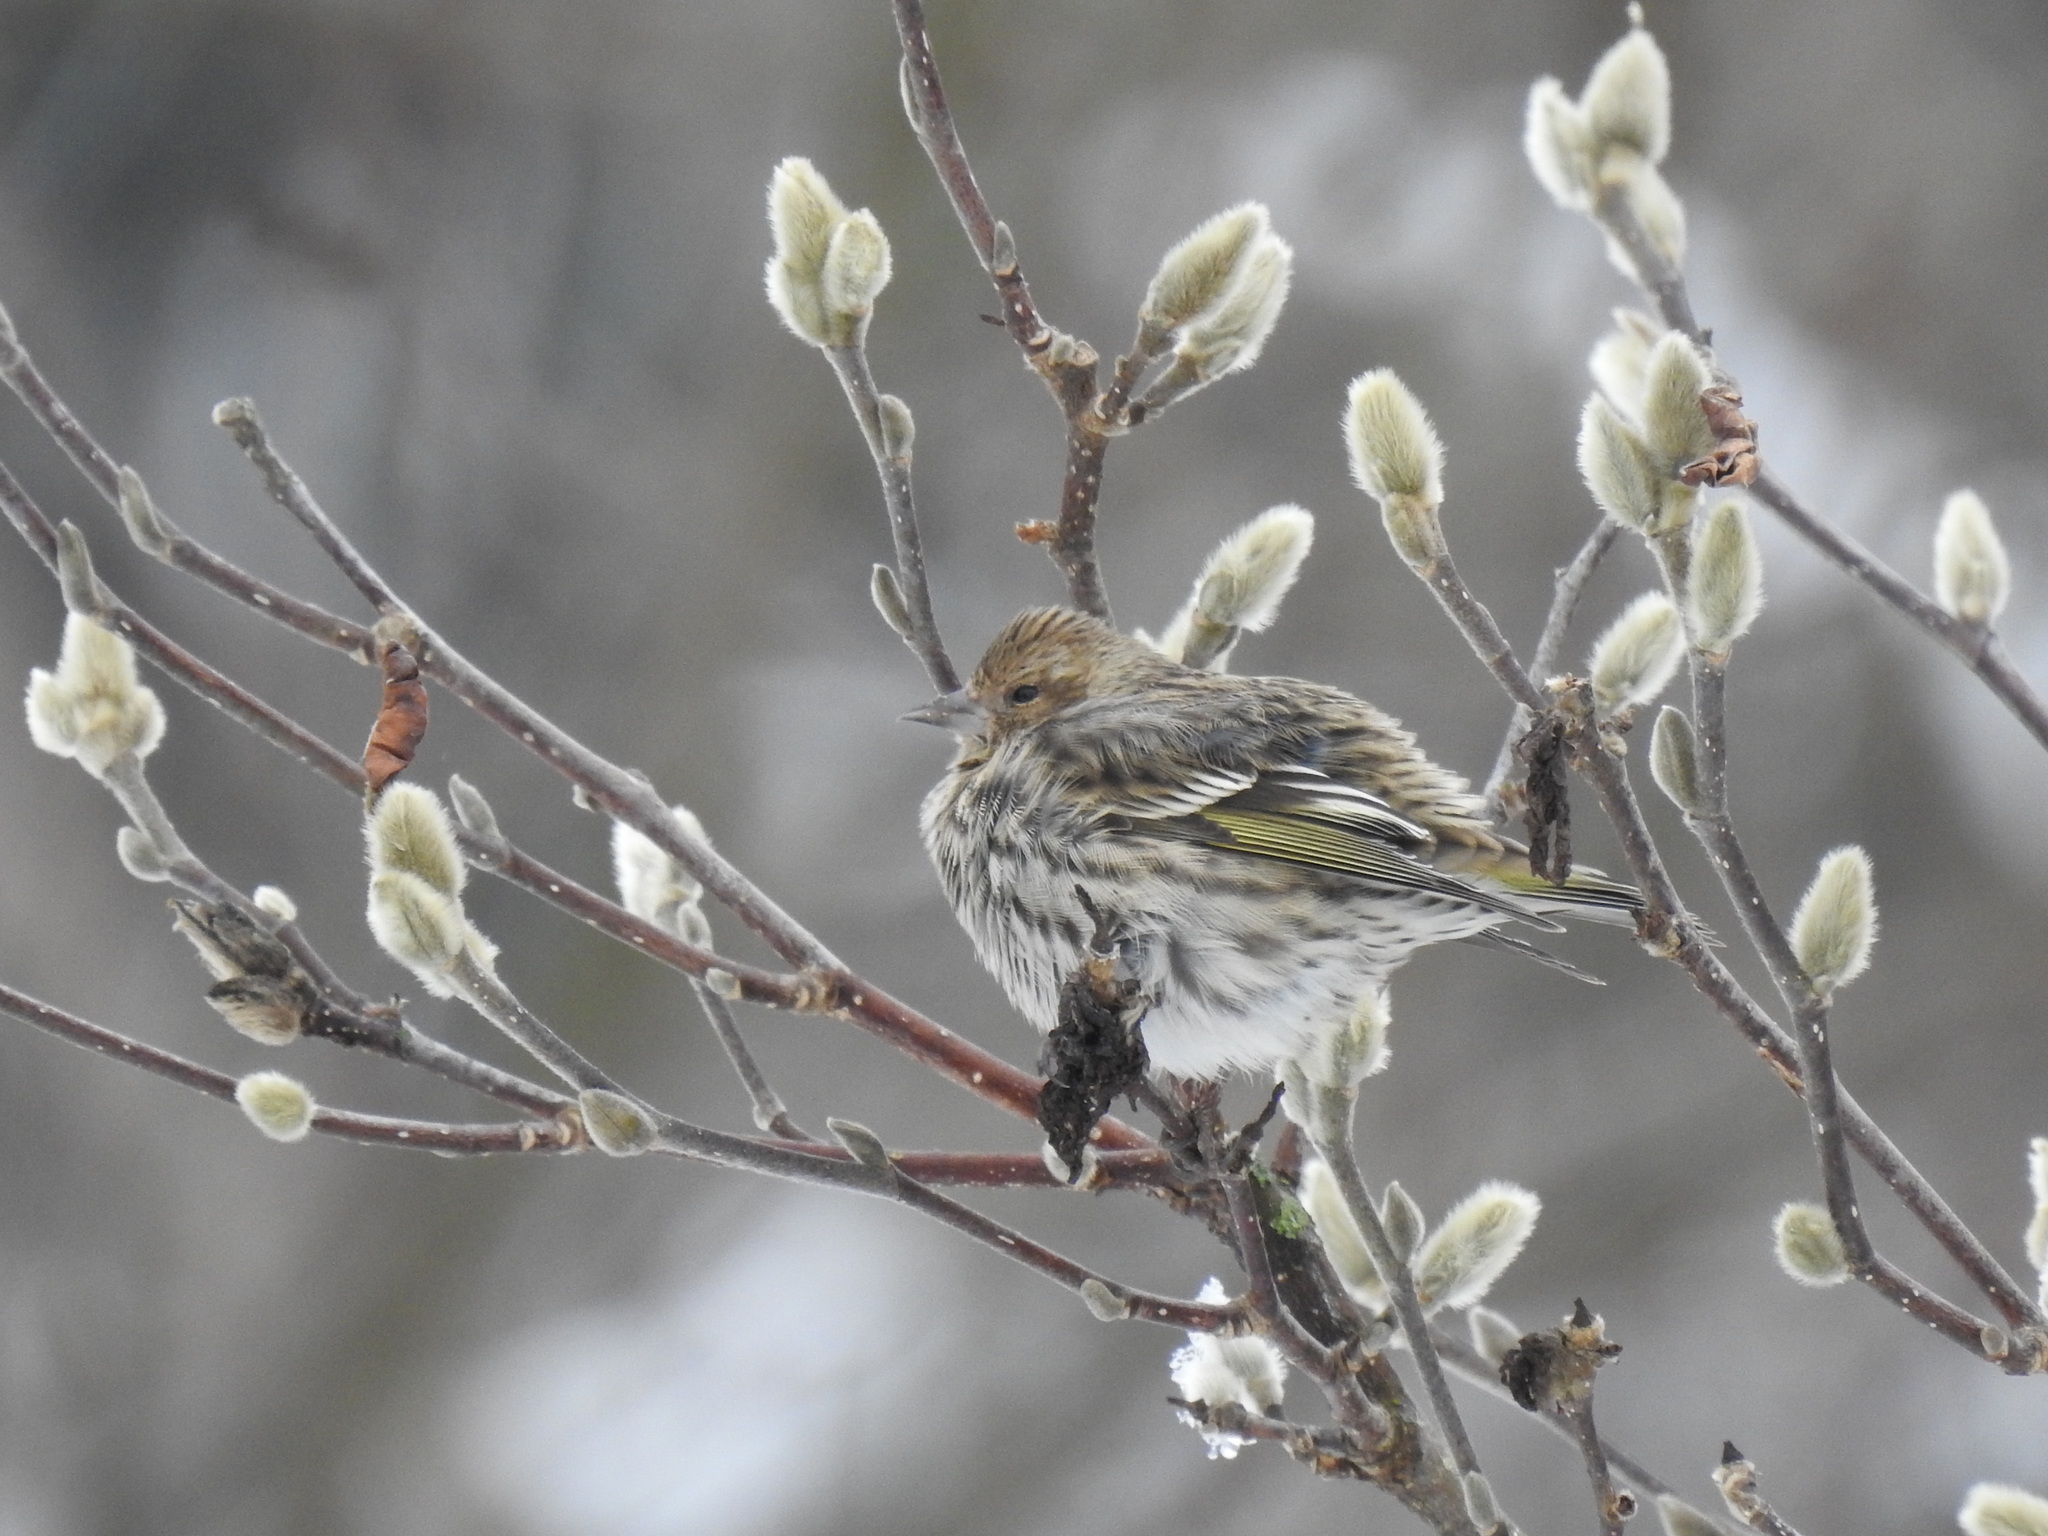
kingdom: Animalia
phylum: Chordata
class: Aves
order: Passeriformes
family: Fringillidae
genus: Spinus
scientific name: Spinus pinus
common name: Pine siskin
